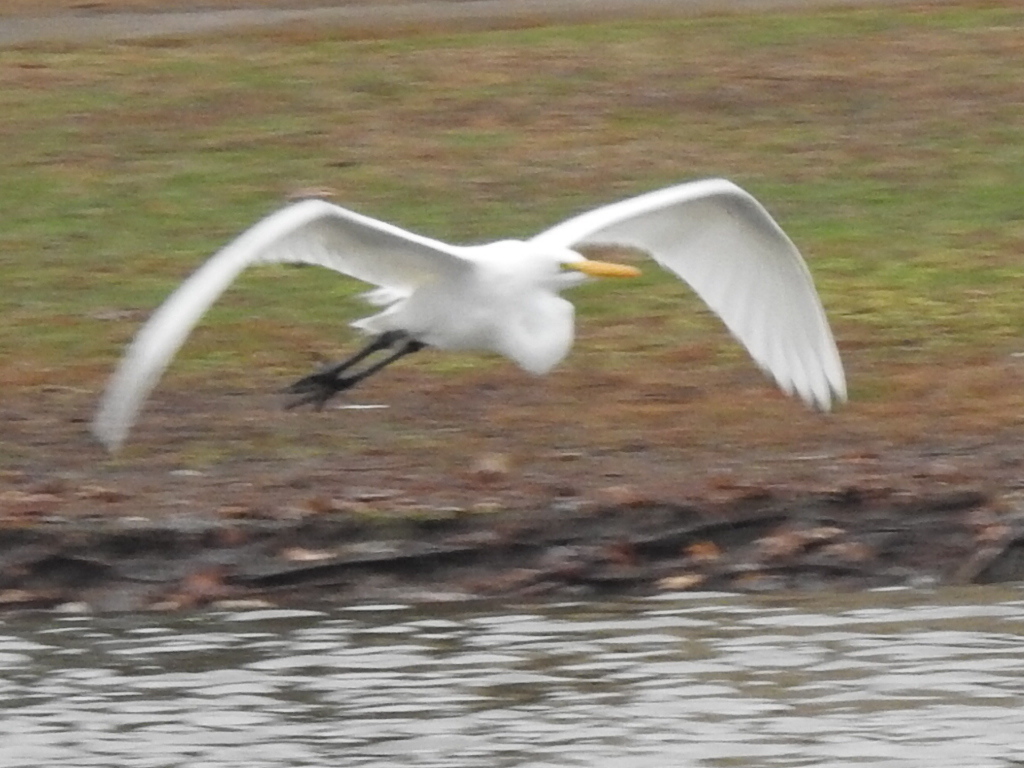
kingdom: Animalia
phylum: Chordata
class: Aves
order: Pelecaniformes
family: Ardeidae
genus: Ardea
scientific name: Ardea alba
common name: Great egret
